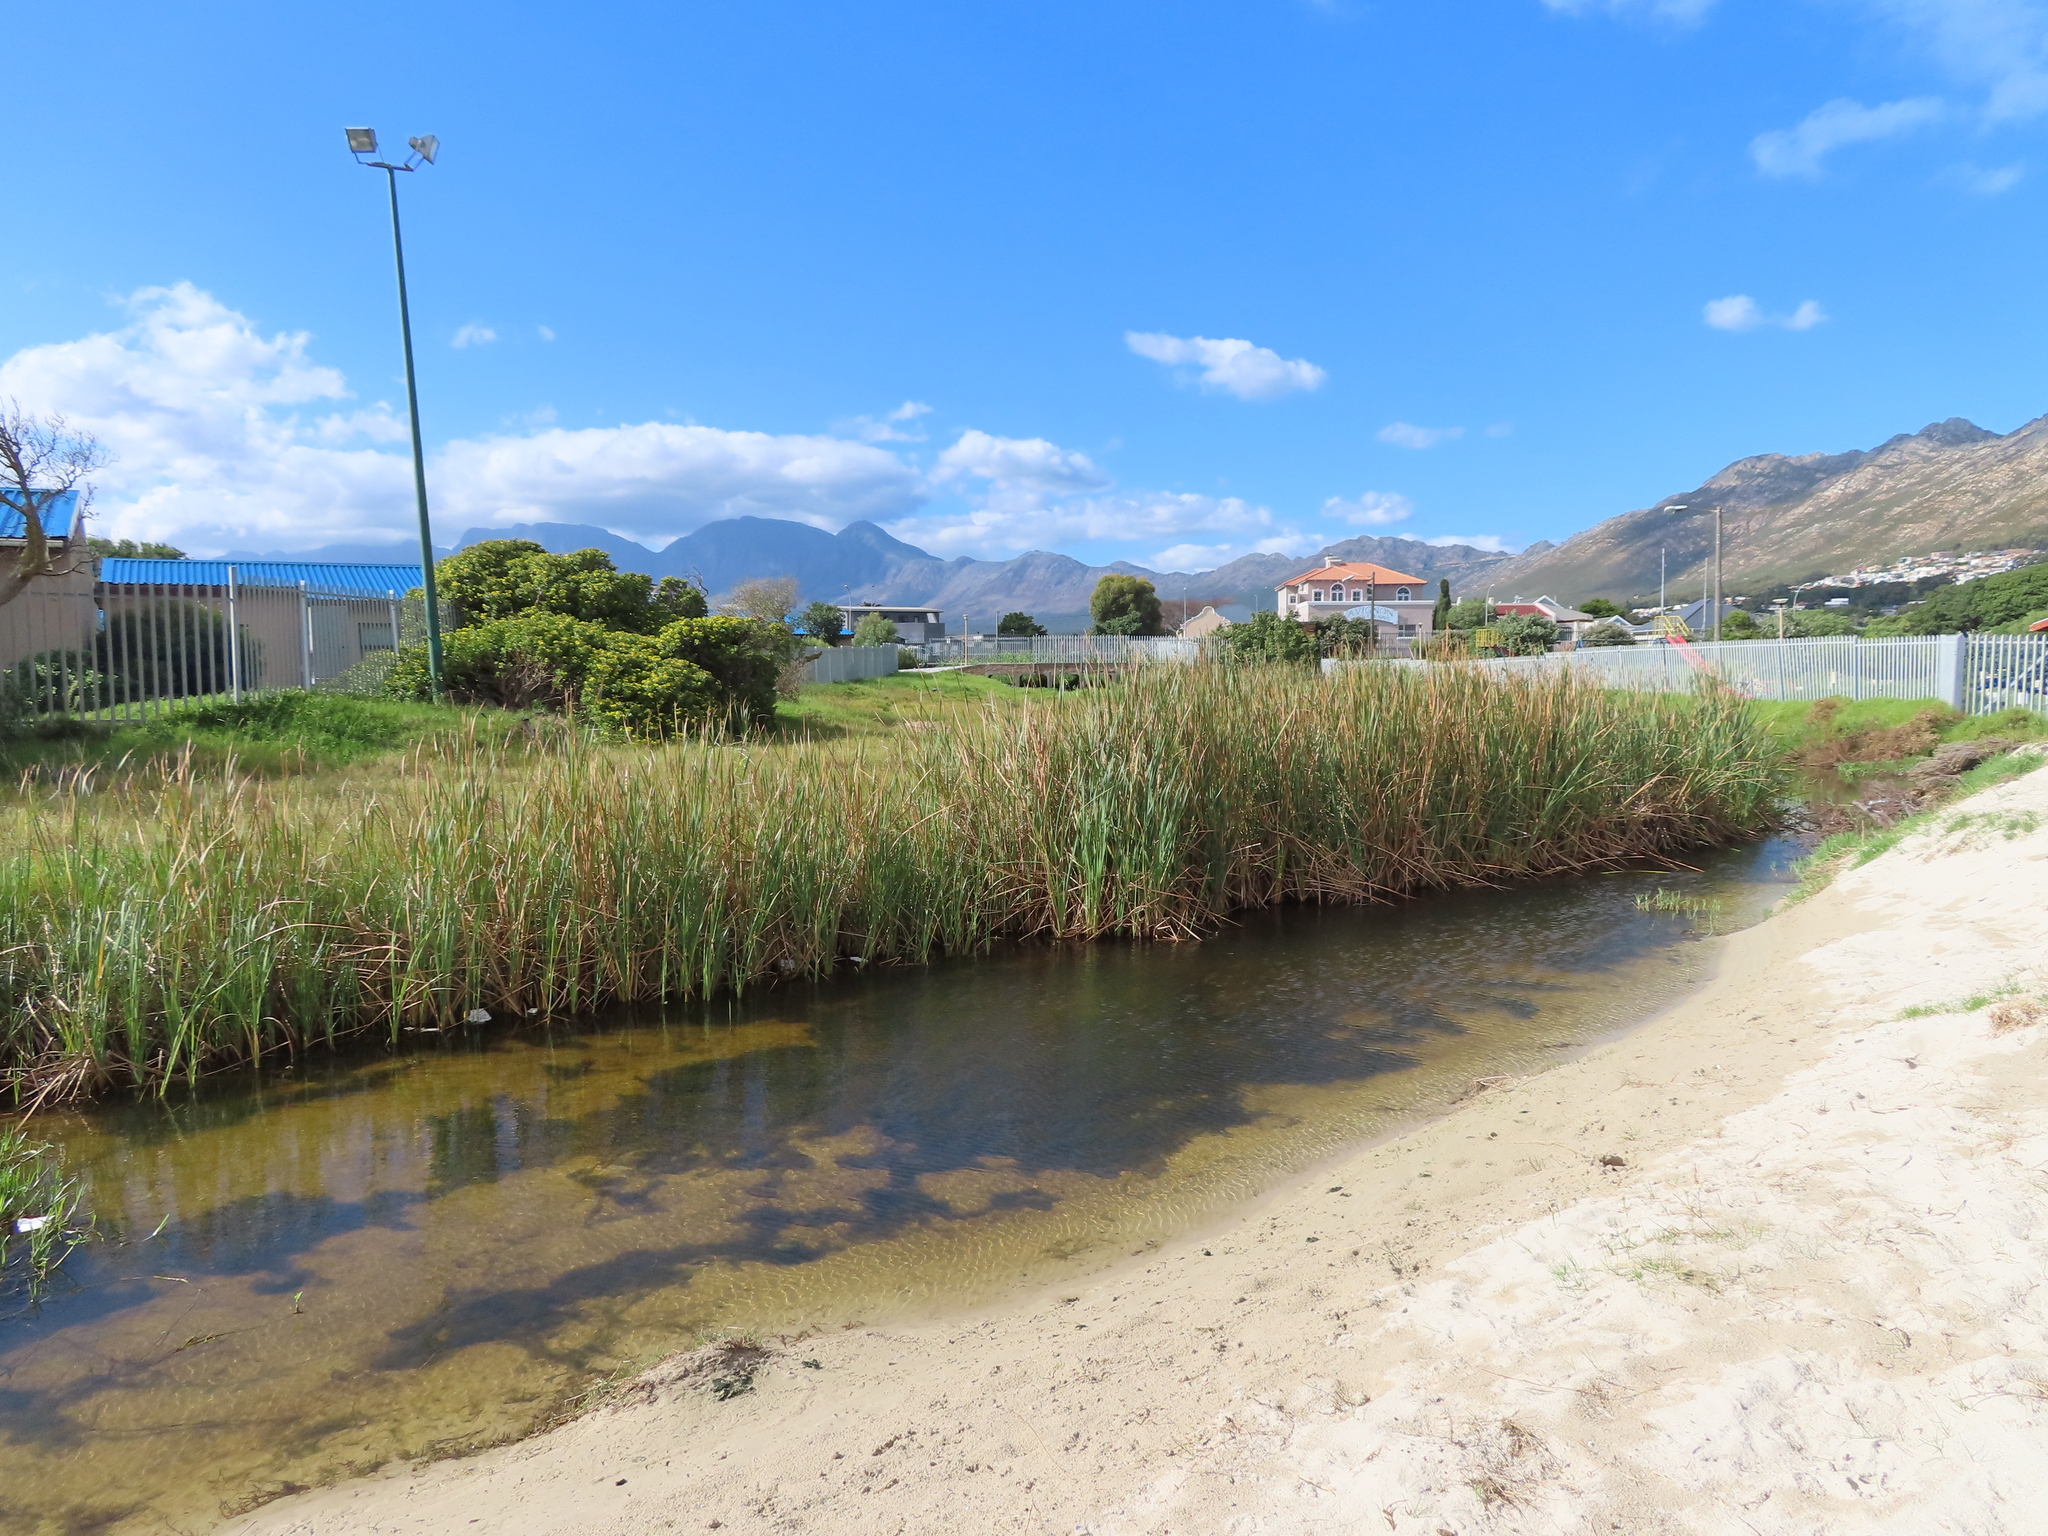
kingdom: Plantae
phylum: Tracheophyta
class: Liliopsida
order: Poales
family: Typhaceae
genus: Typha
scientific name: Typha capensis
